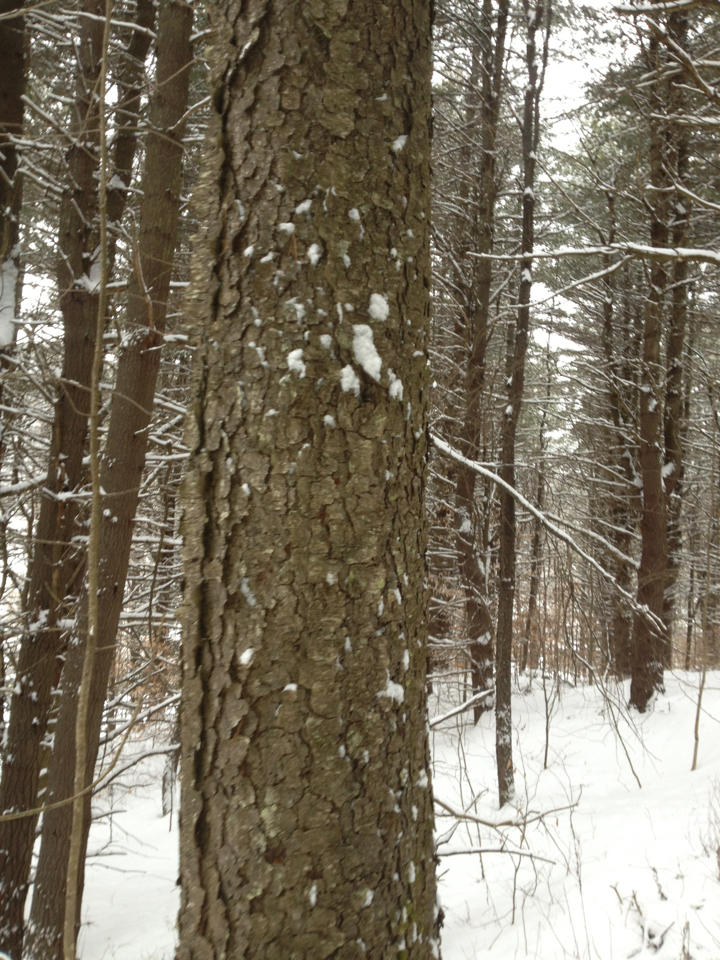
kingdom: Plantae
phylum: Tracheophyta
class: Magnoliopsida
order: Rosales
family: Rosaceae
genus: Prunus
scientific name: Prunus serotina
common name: Black cherry
